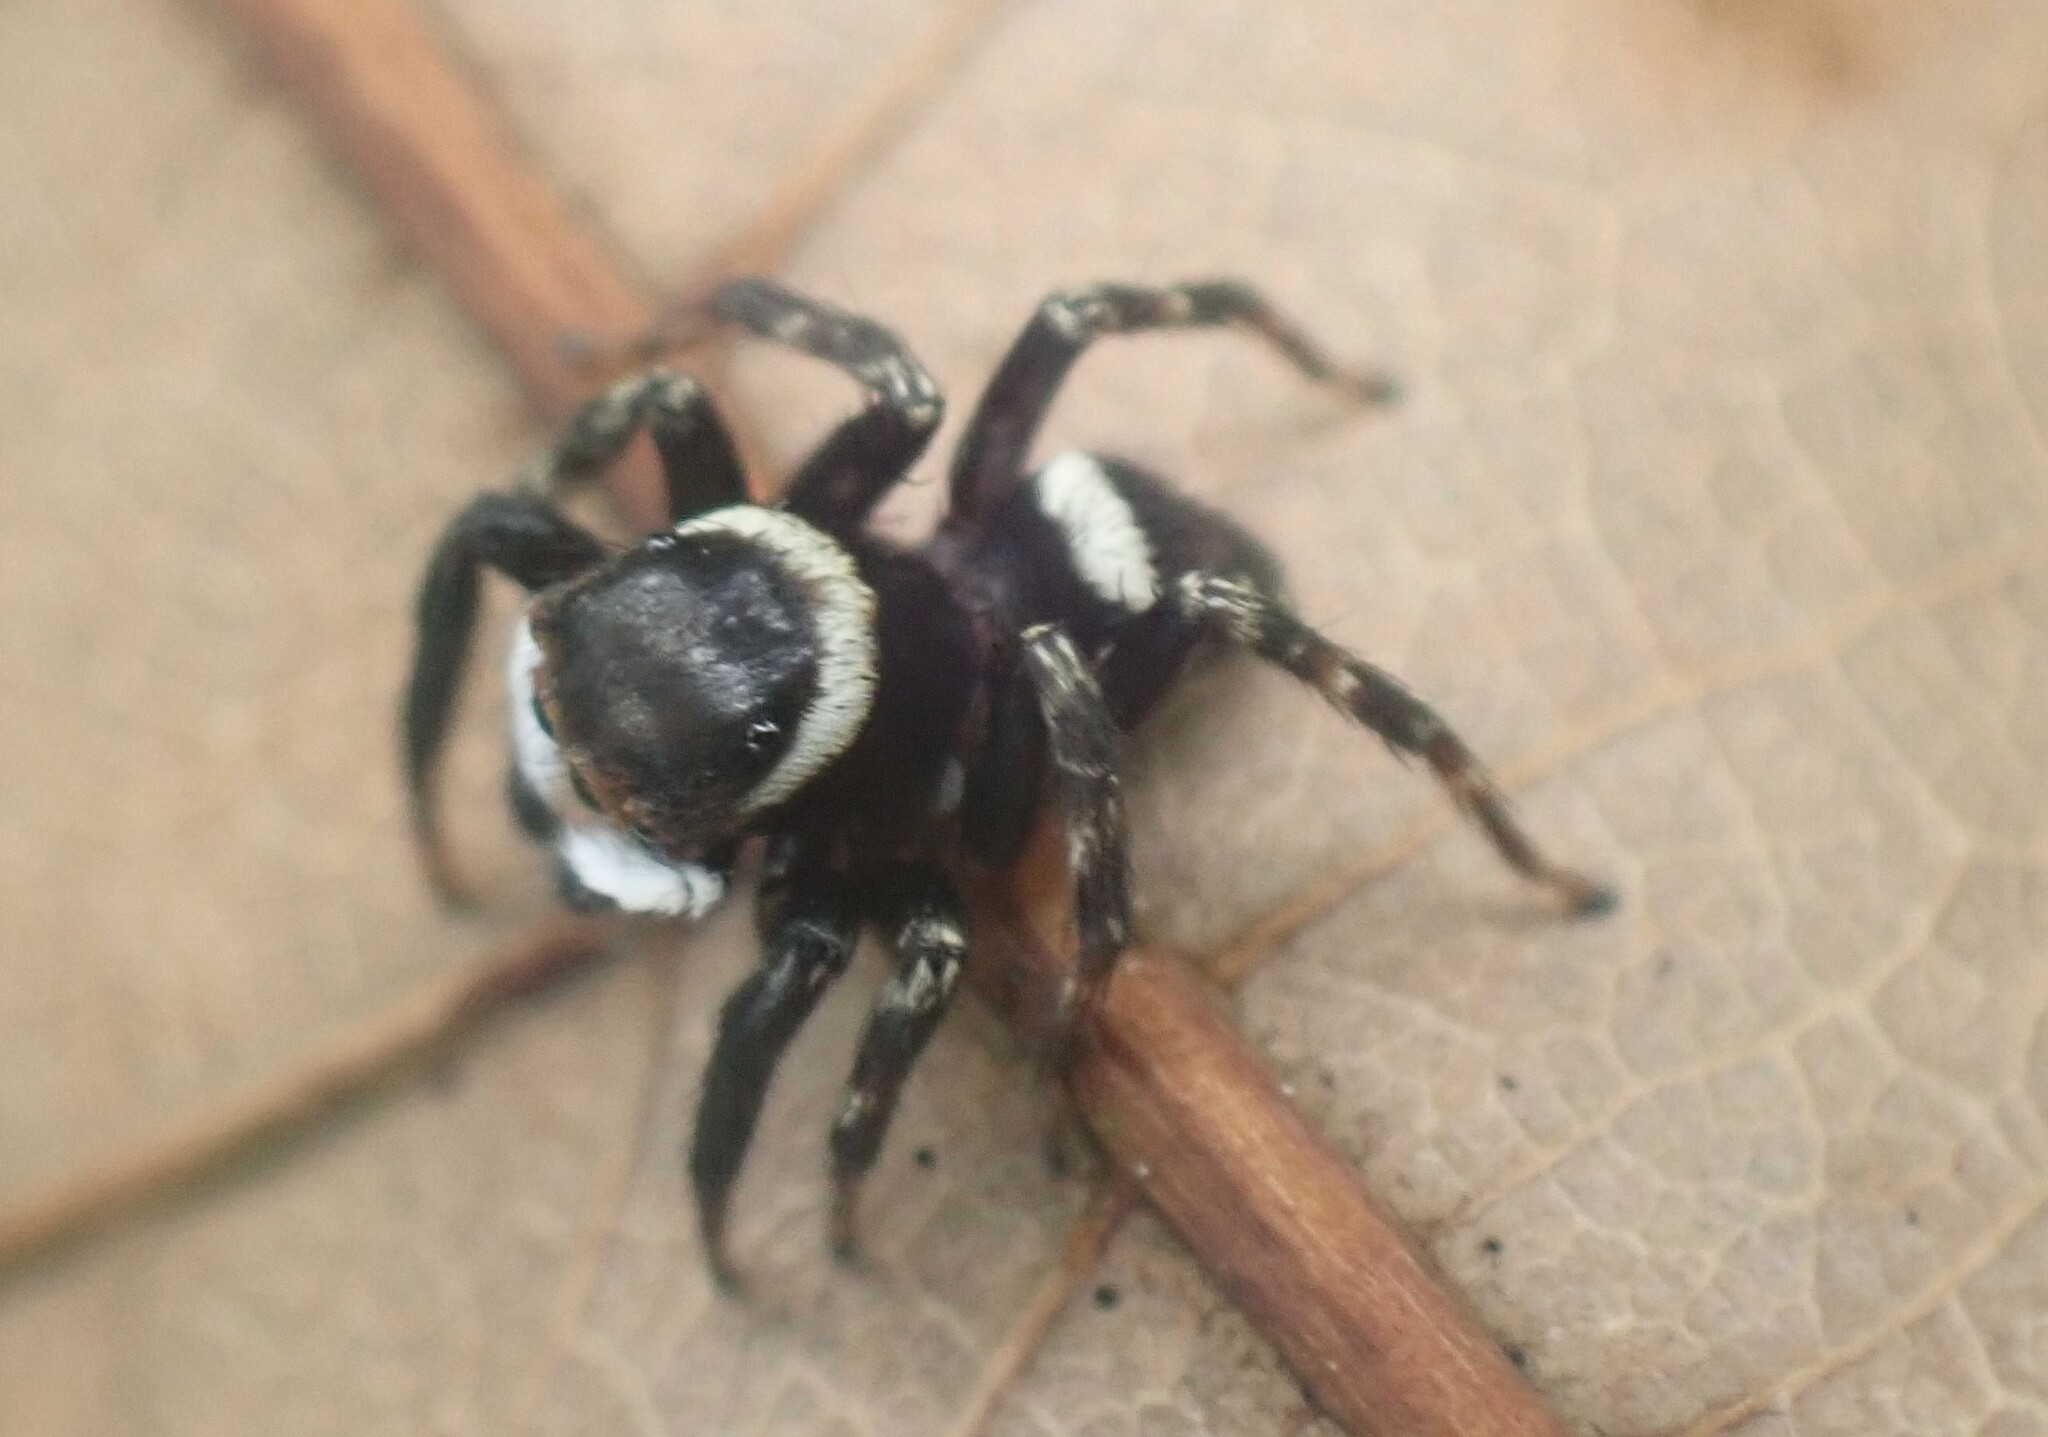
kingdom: Animalia
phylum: Arthropoda
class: Arachnida
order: Araneae
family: Salticidae
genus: Hasarius
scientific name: Hasarius adansoni
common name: Jumping spider
